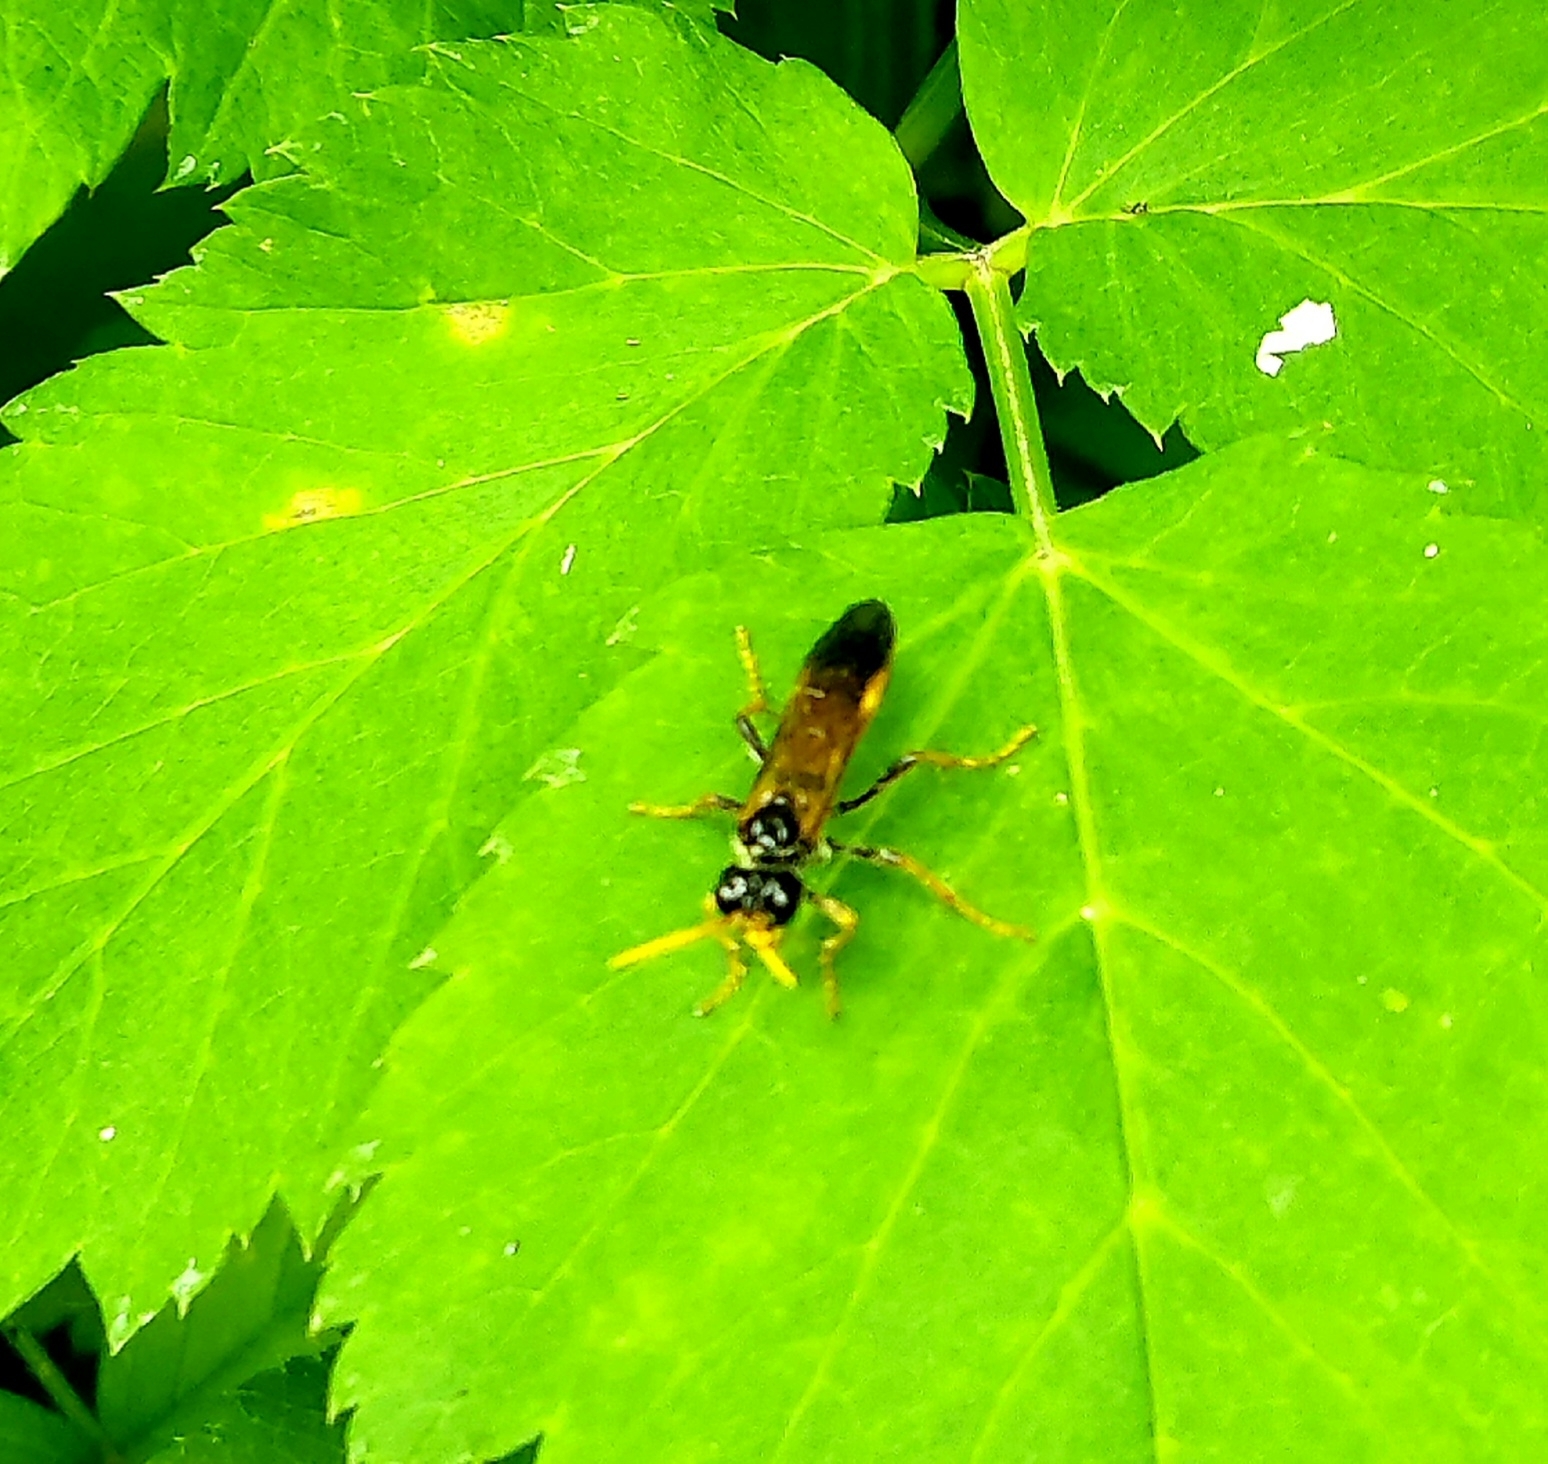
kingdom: Animalia
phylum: Arthropoda
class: Insecta
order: Hymenoptera
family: Tenthredinidae
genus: Tenthredo
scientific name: Tenthredo campestris
